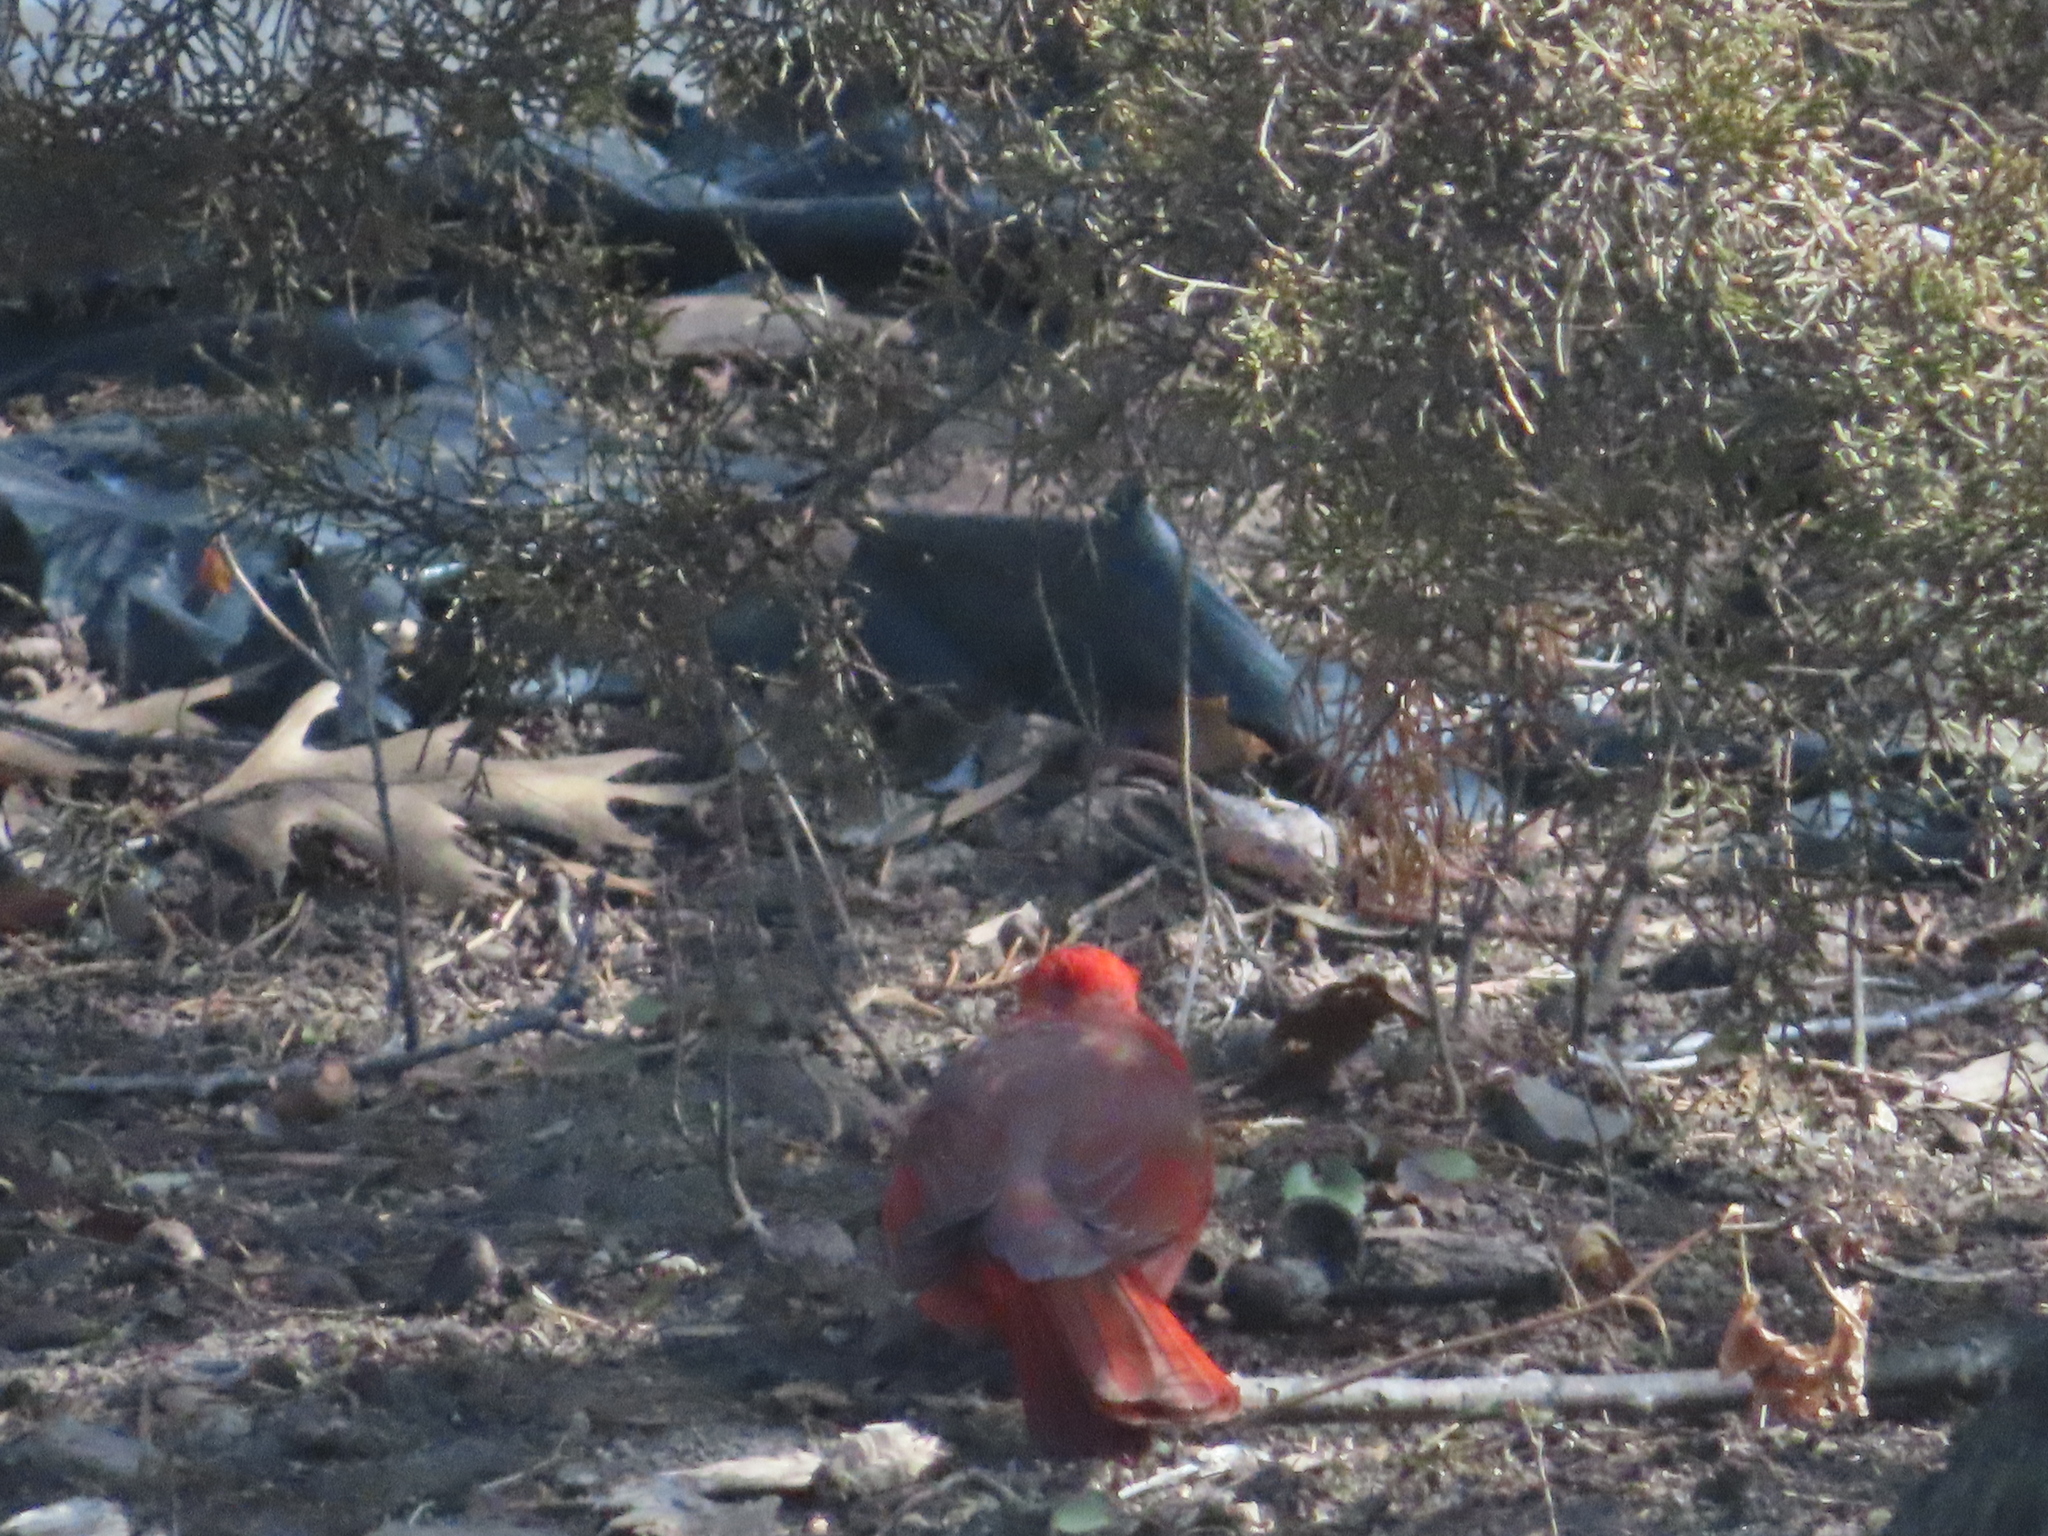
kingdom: Animalia
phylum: Chordata
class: Aves
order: Passeriformes
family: Cardinalidae
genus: Cardinalis
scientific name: Cardinalis cardinalis
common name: Northern cardinal
